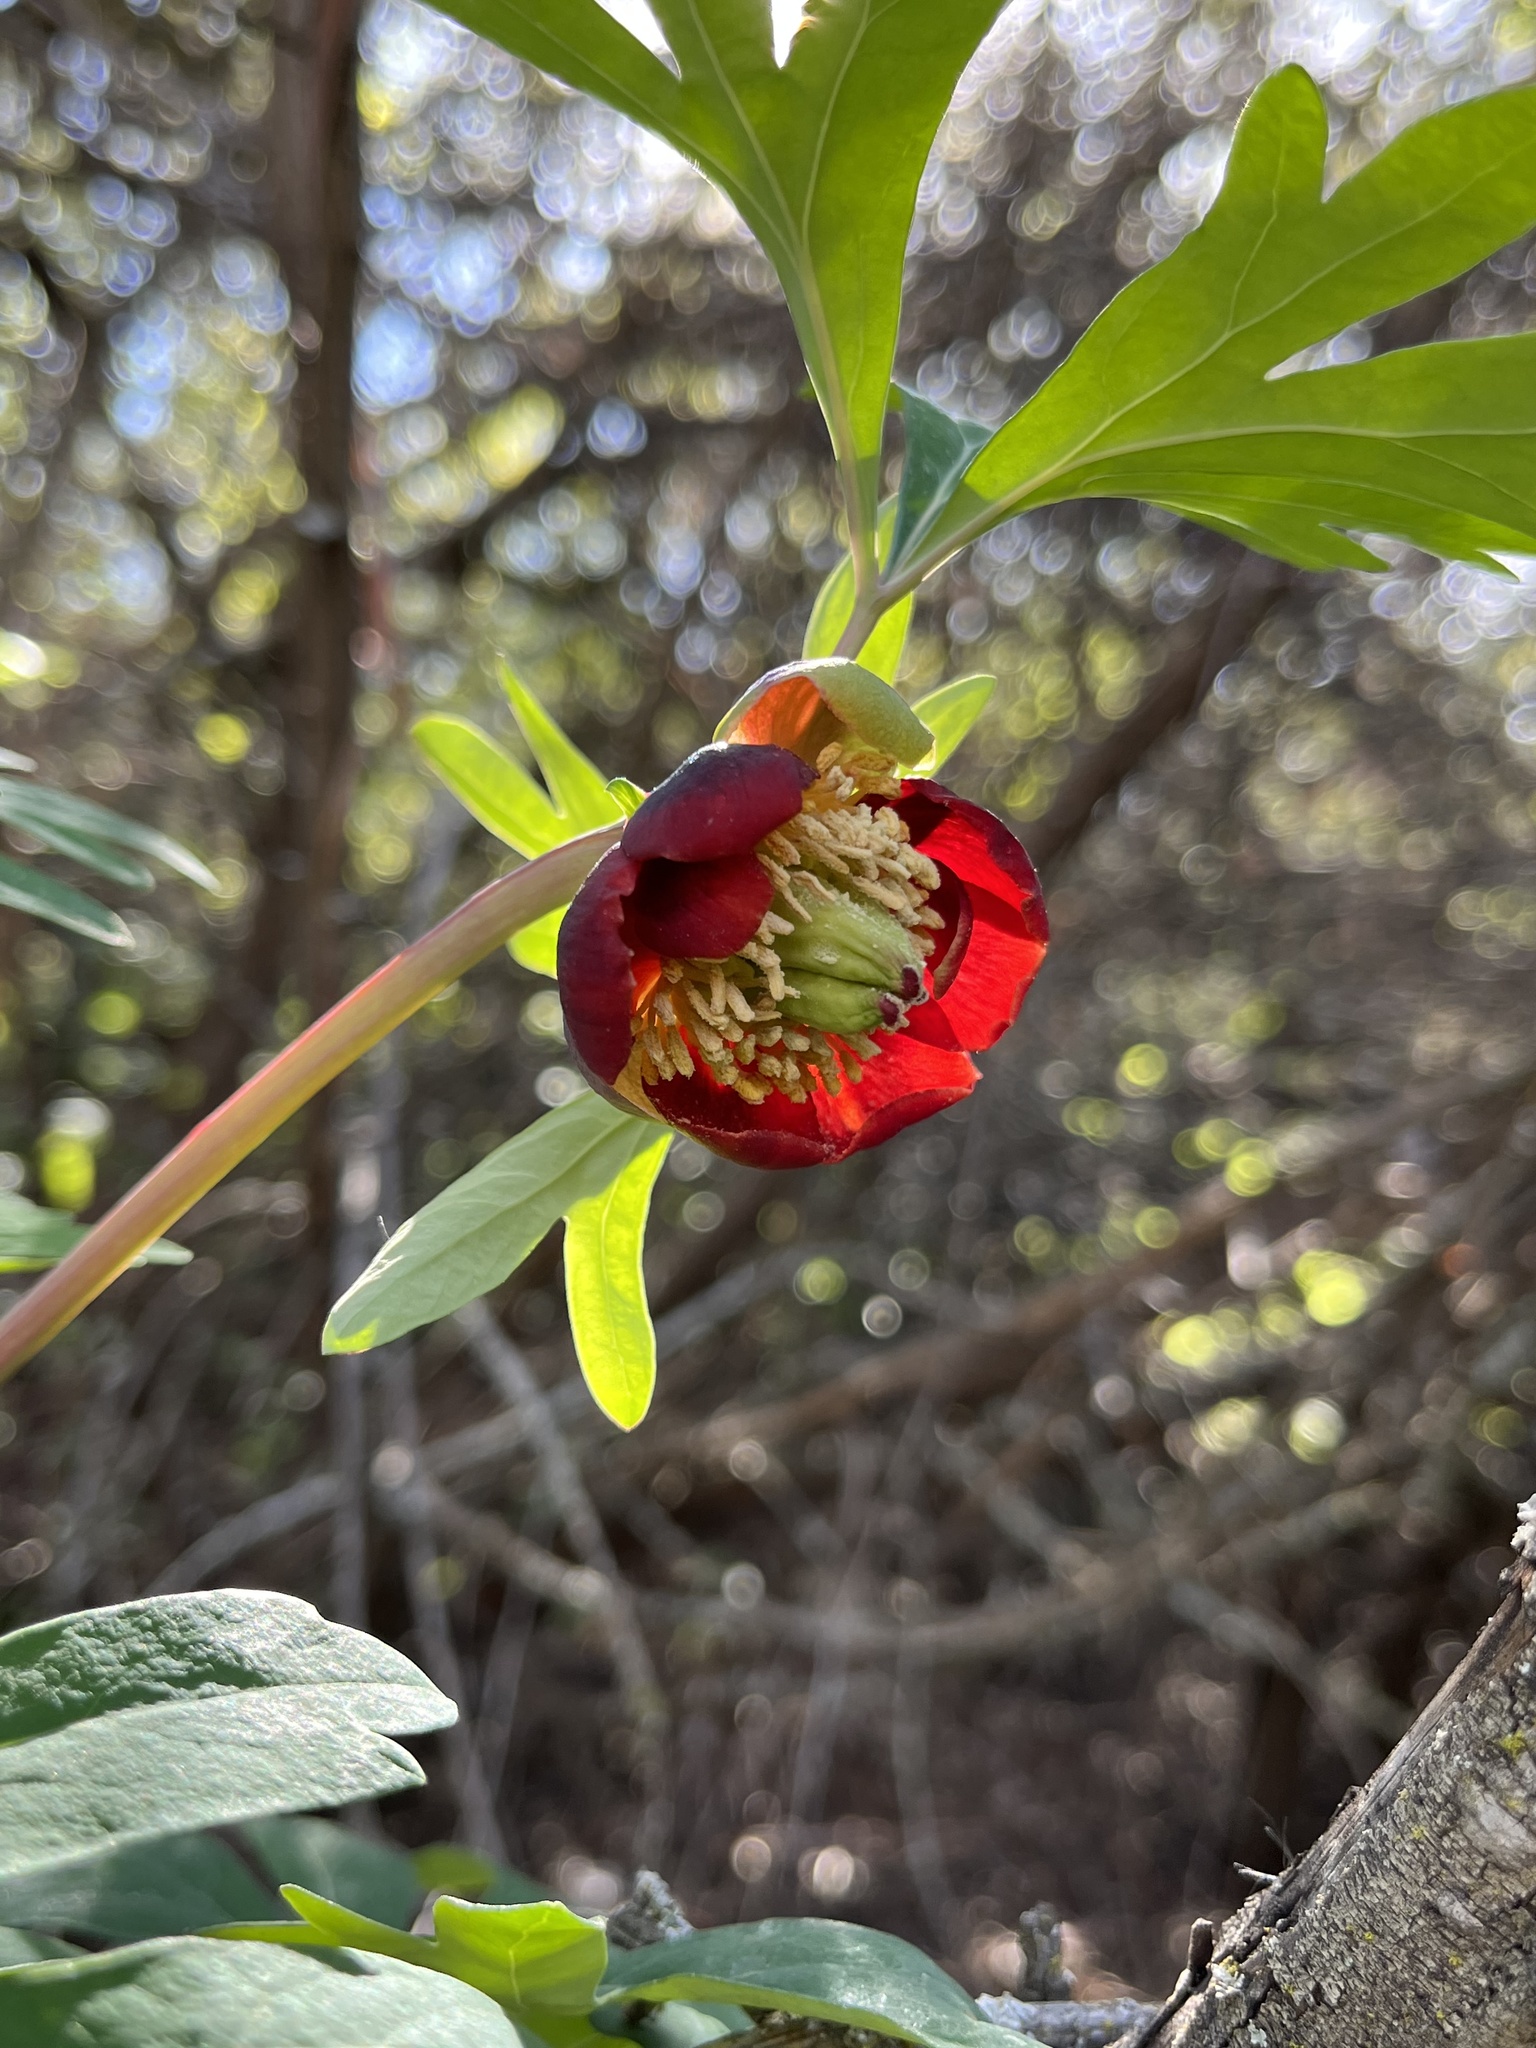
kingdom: Plantae
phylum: Tracheophyta
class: Magnoliopsida
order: Saxifragales
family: Paeoniaceae
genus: Paeonia
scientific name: Paeonia californica
